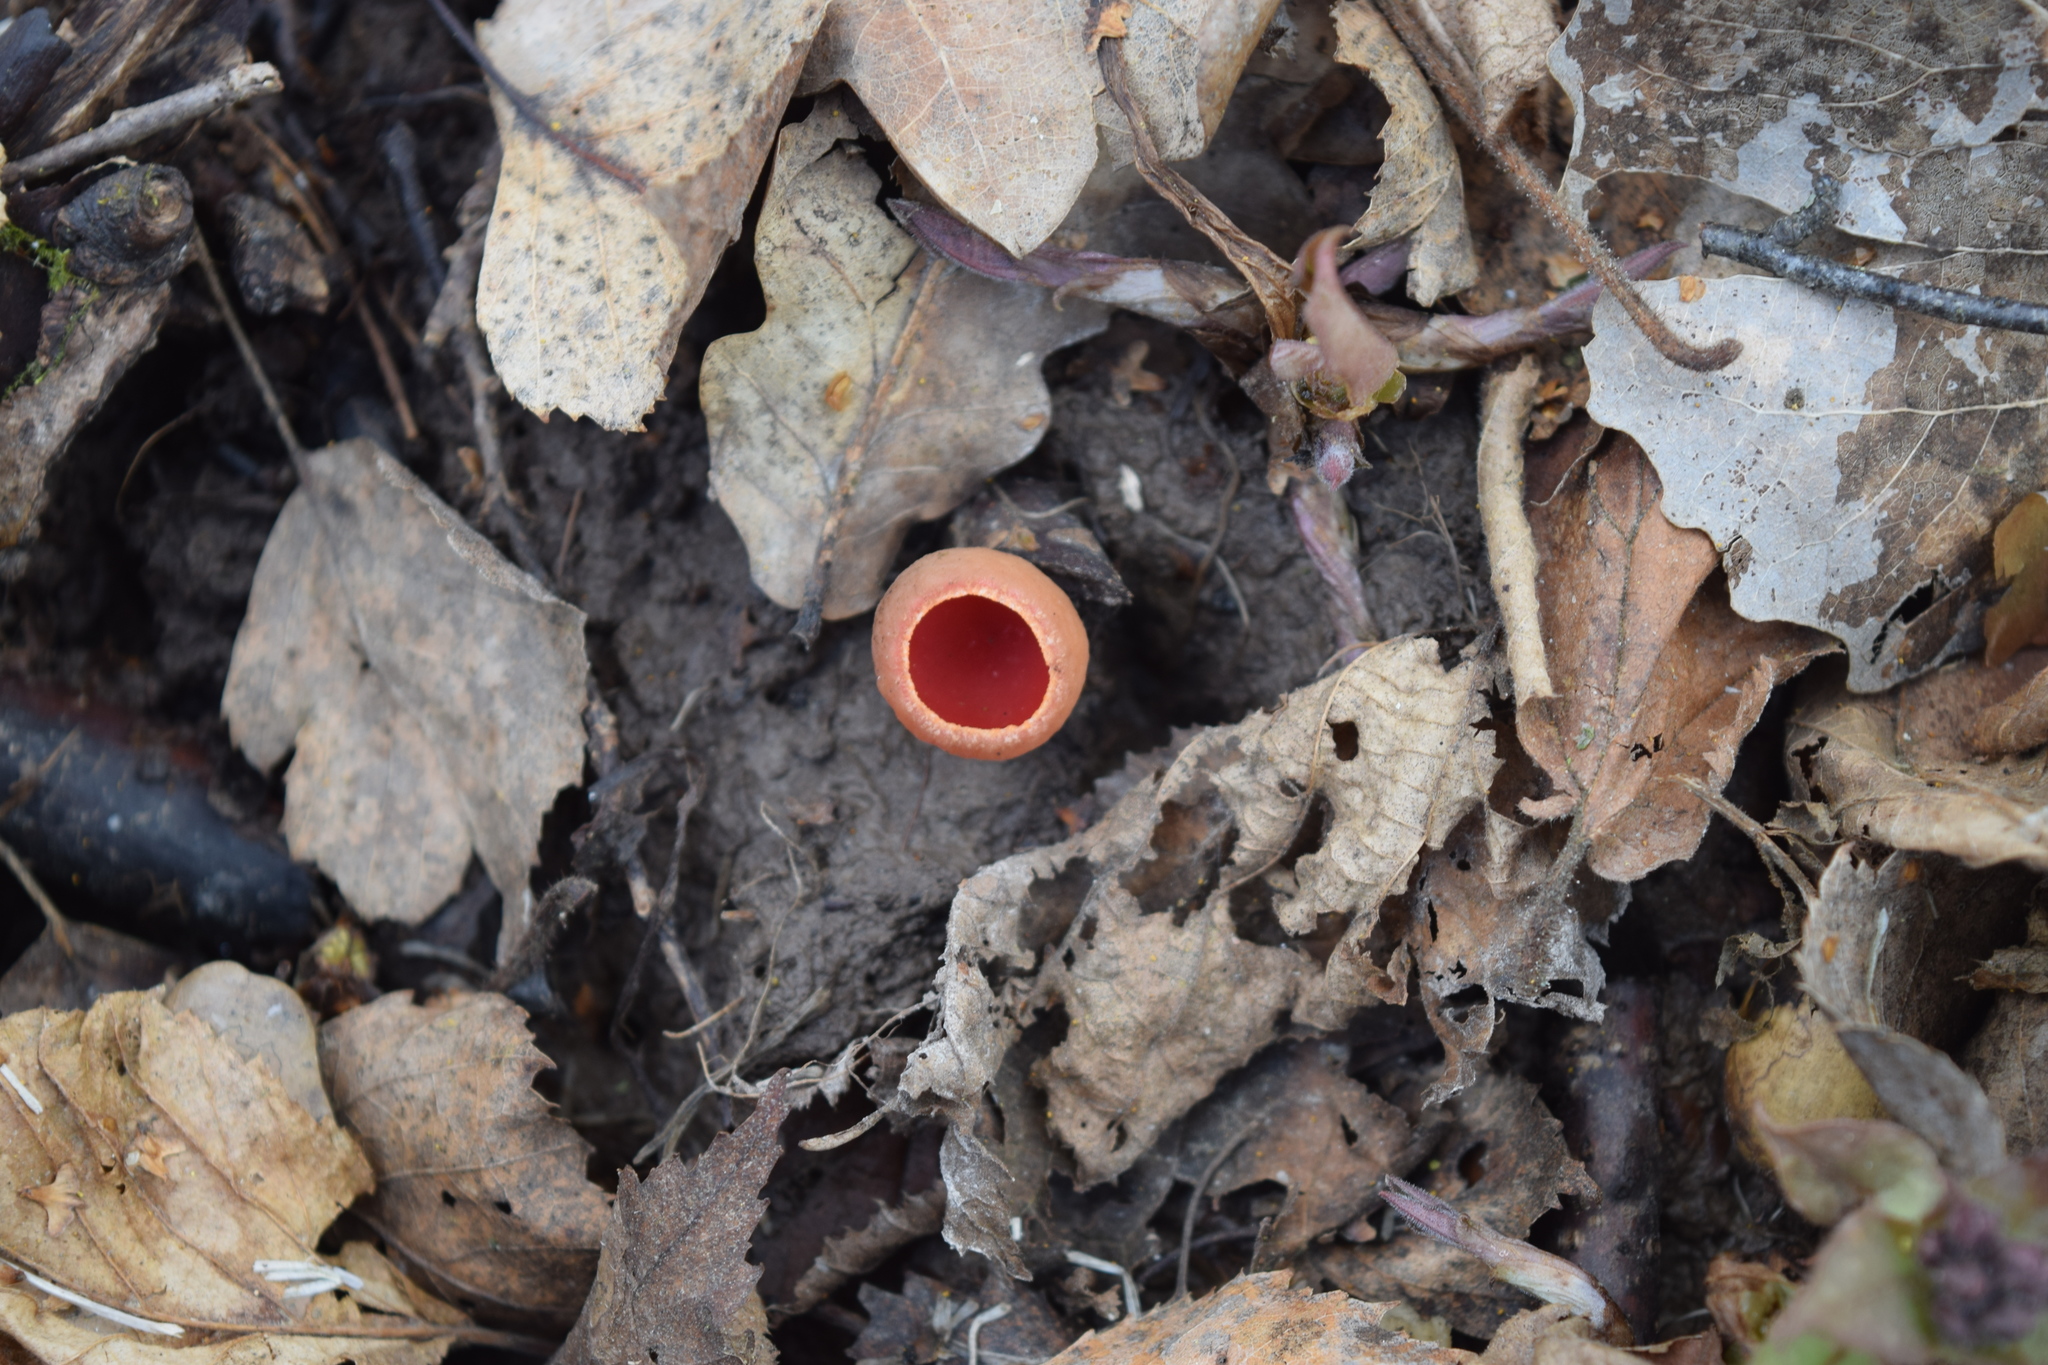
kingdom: Fungi
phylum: Ascomycota
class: Pezizomycetes
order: Pezizales
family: Sarcoscyphaceae
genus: Sarcoscypha
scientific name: Sarcoscypha austriaca
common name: Scarlet elfcup
